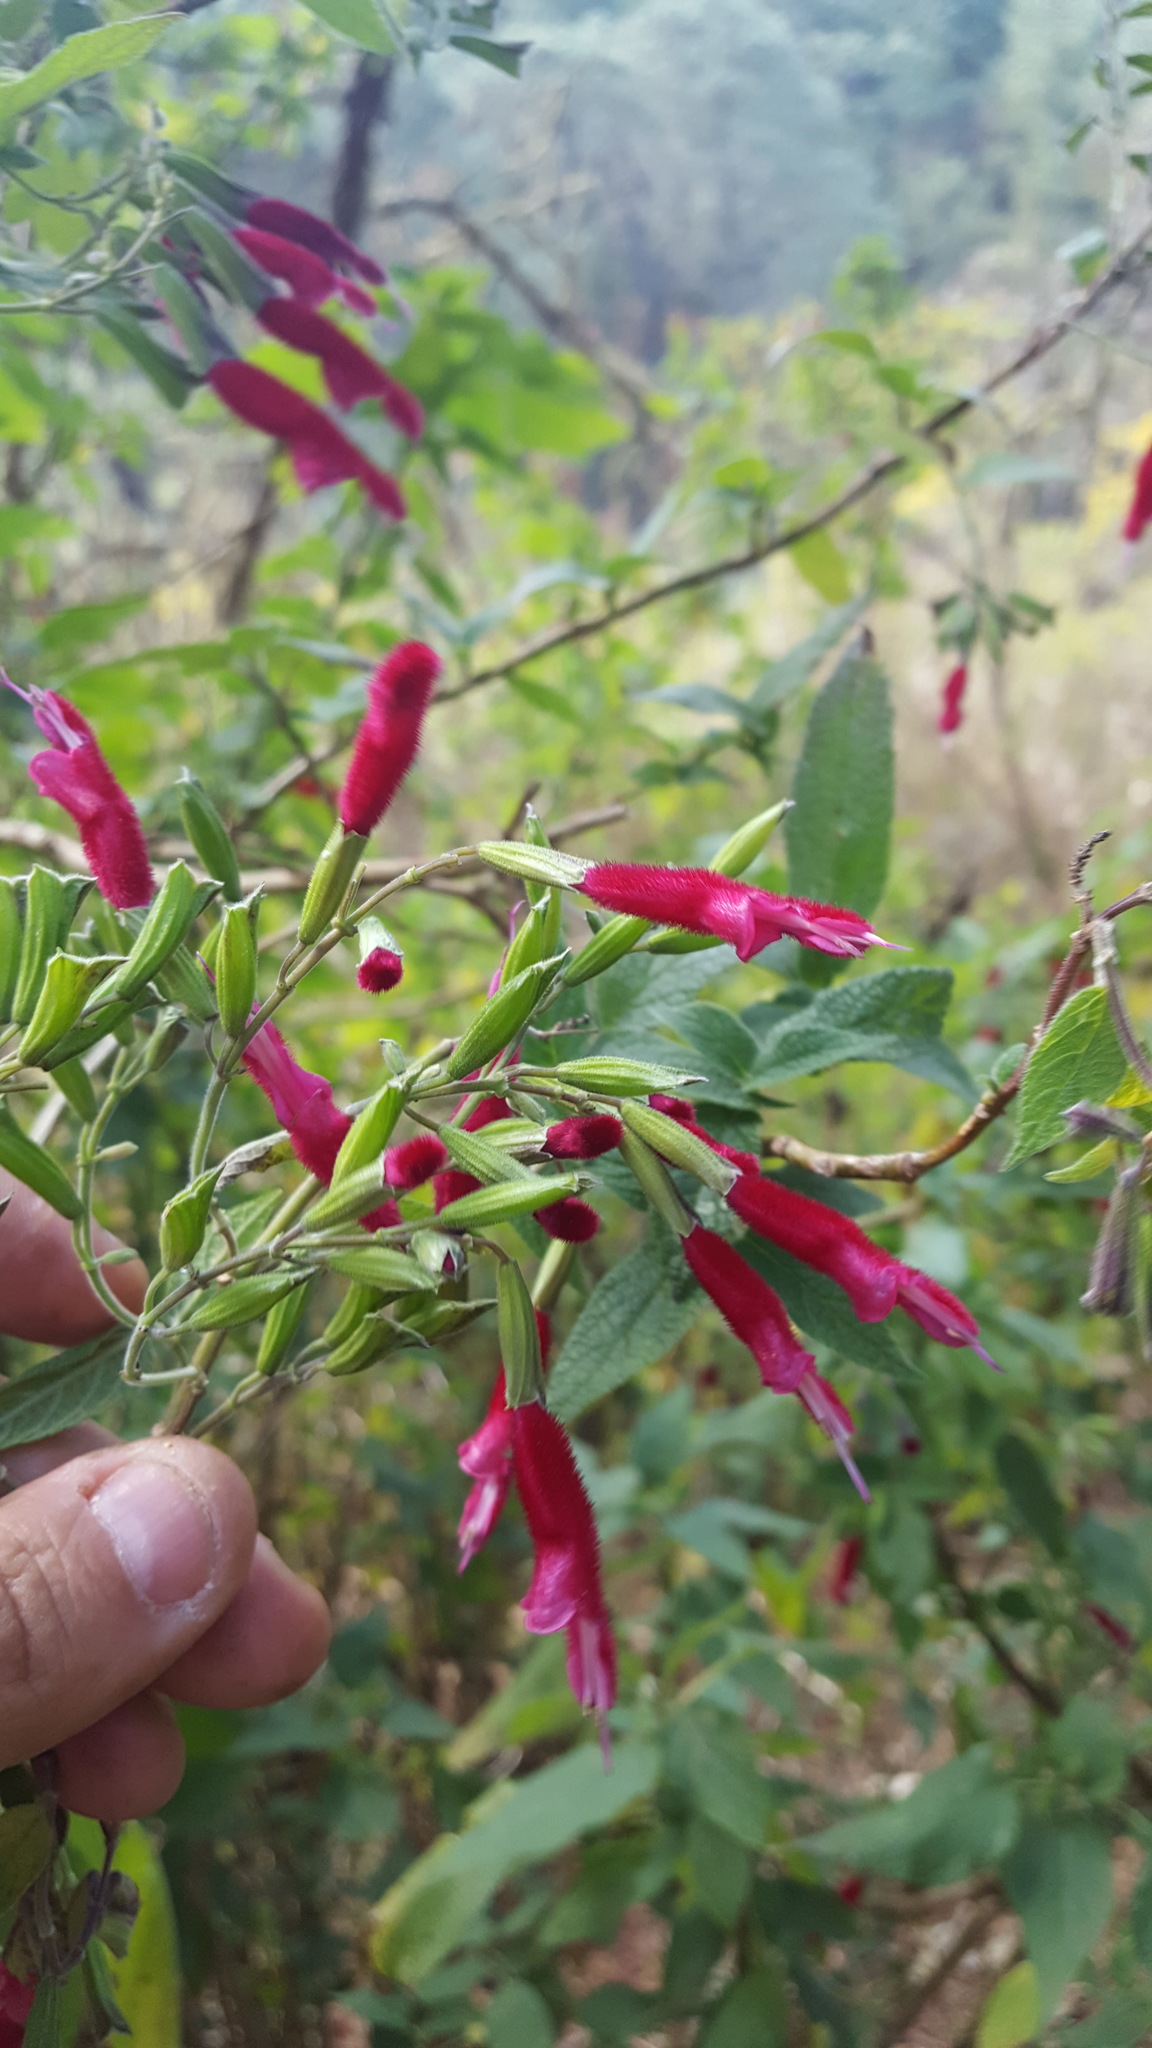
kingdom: Plantae
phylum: Tracheophyta
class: Magnoliopsida
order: Lamiales
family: Lamiaceae
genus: Salvia
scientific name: Salvia nervata
